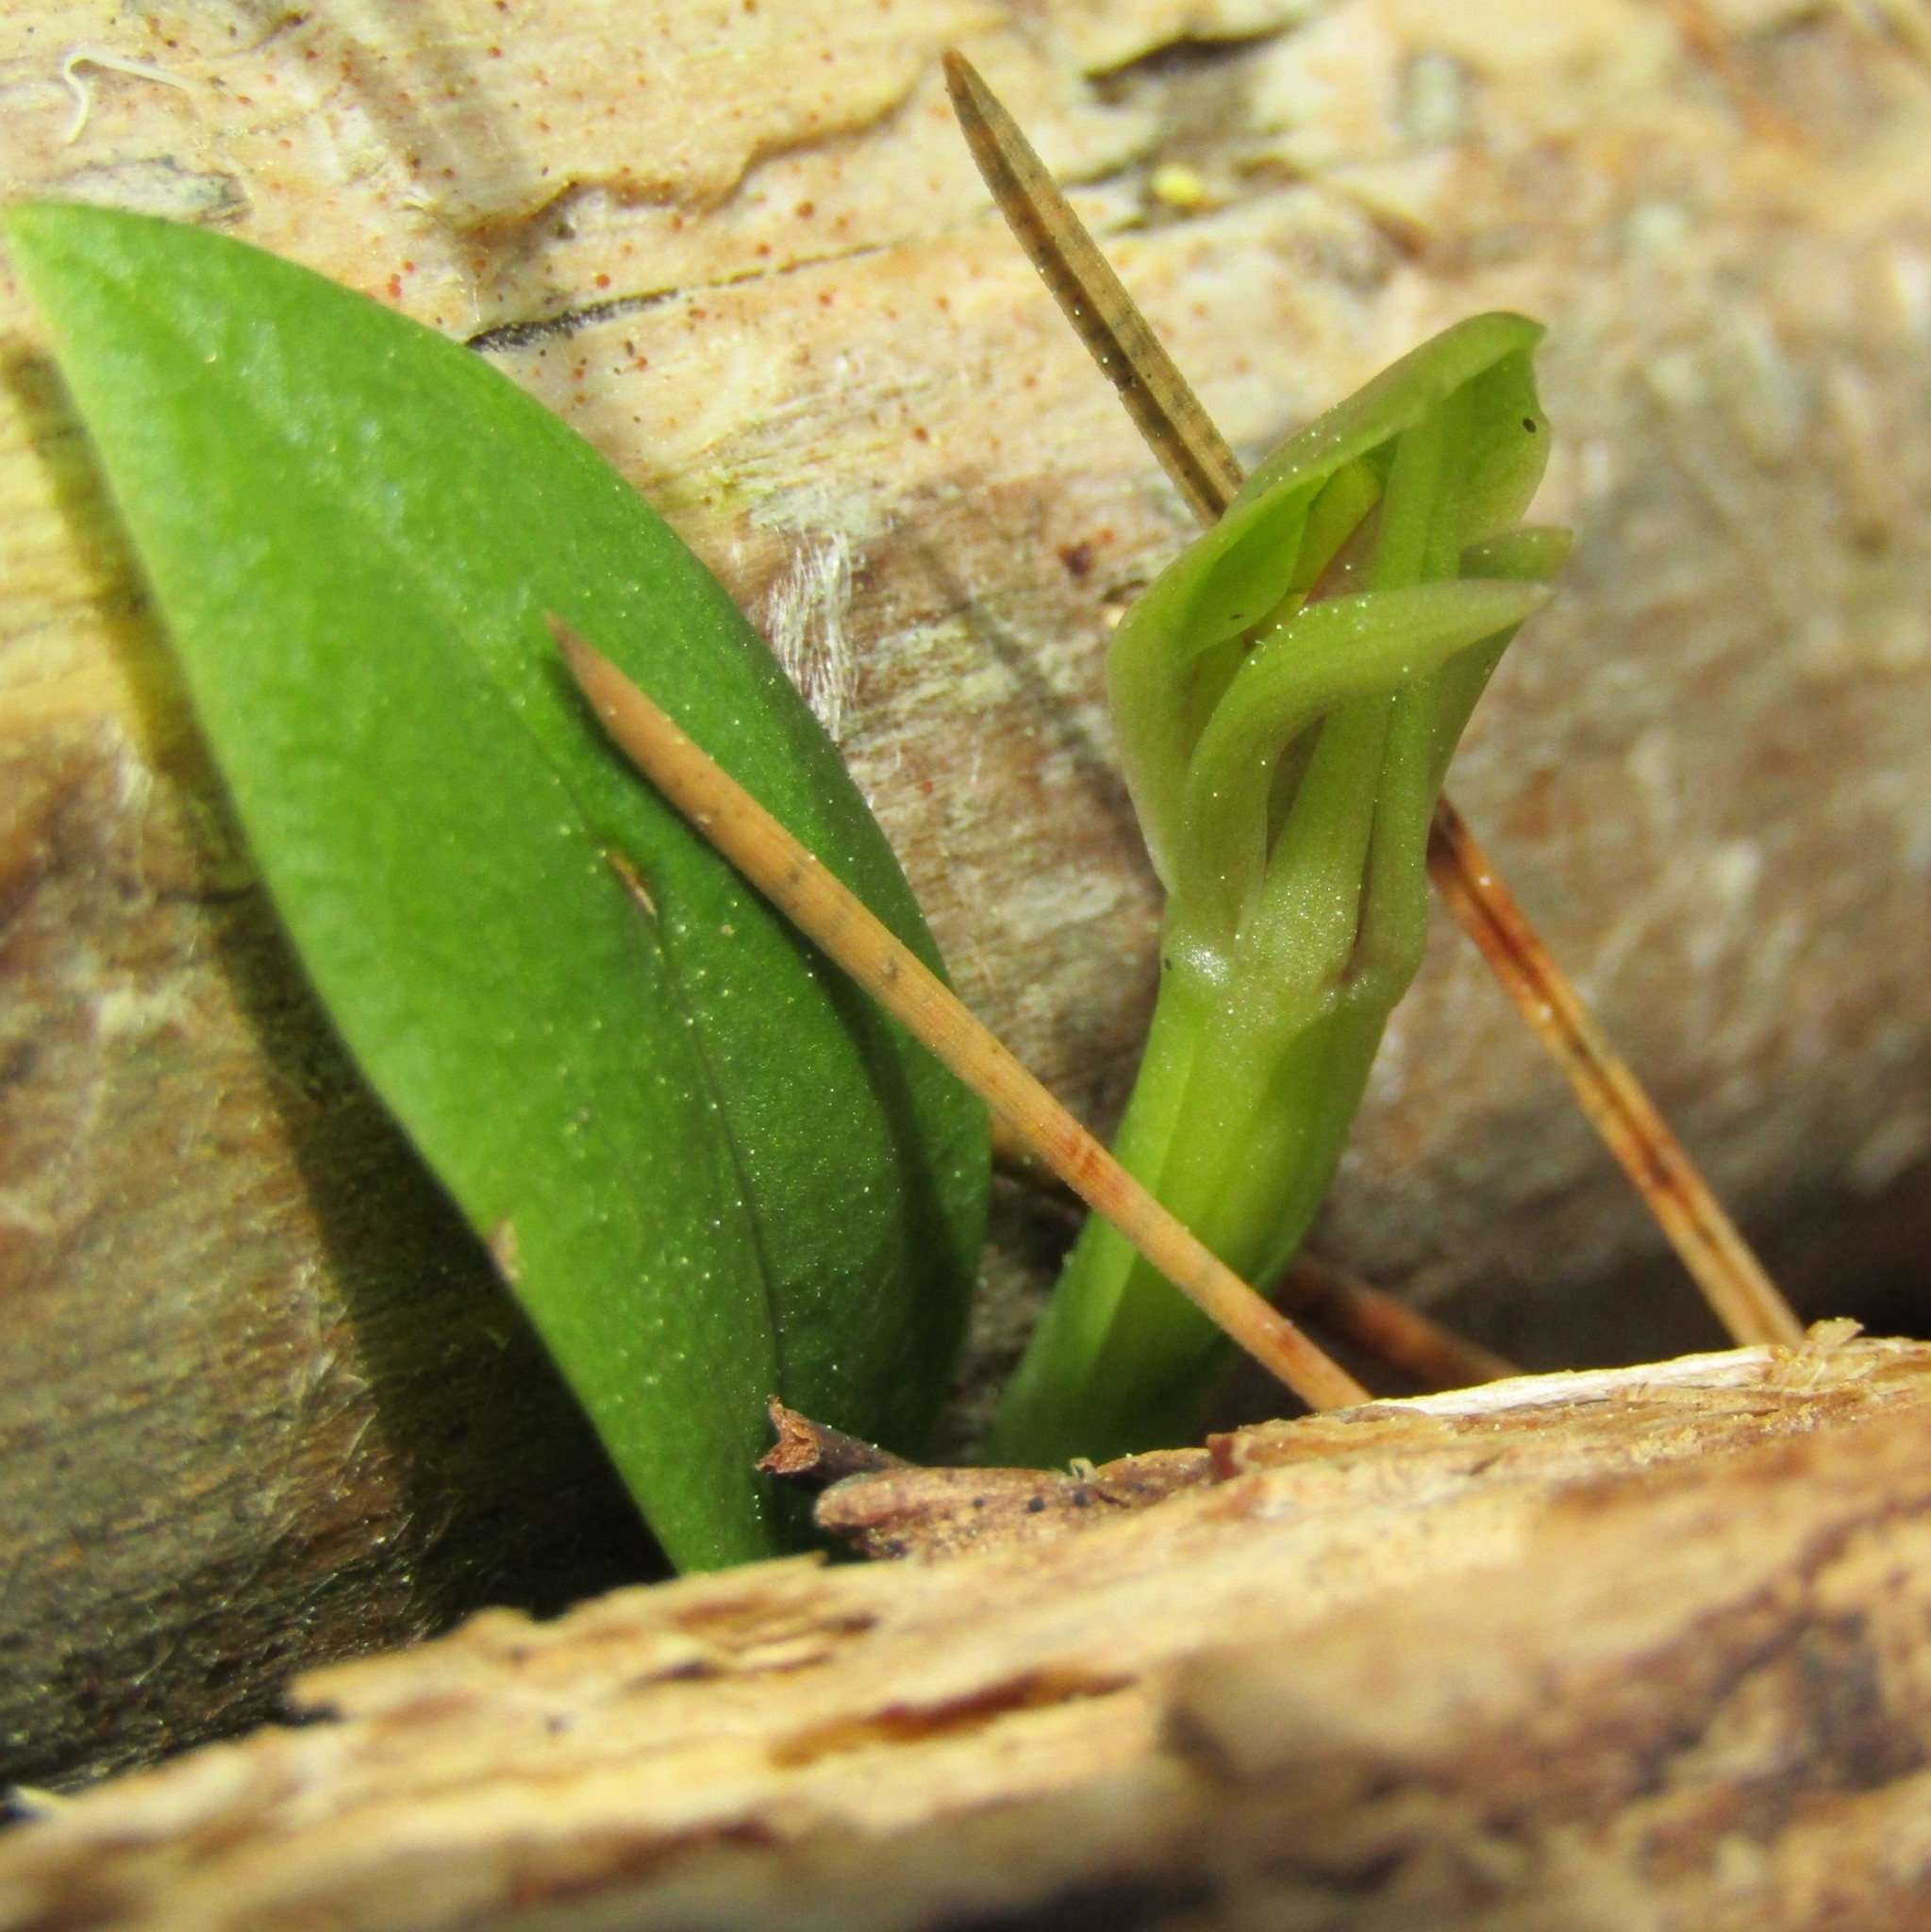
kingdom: Plantae
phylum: Tracheophyta
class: Liliopsida
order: Asparagales
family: Orchidaceae
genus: Chiloglottis
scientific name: Chiloglottis cornuta
